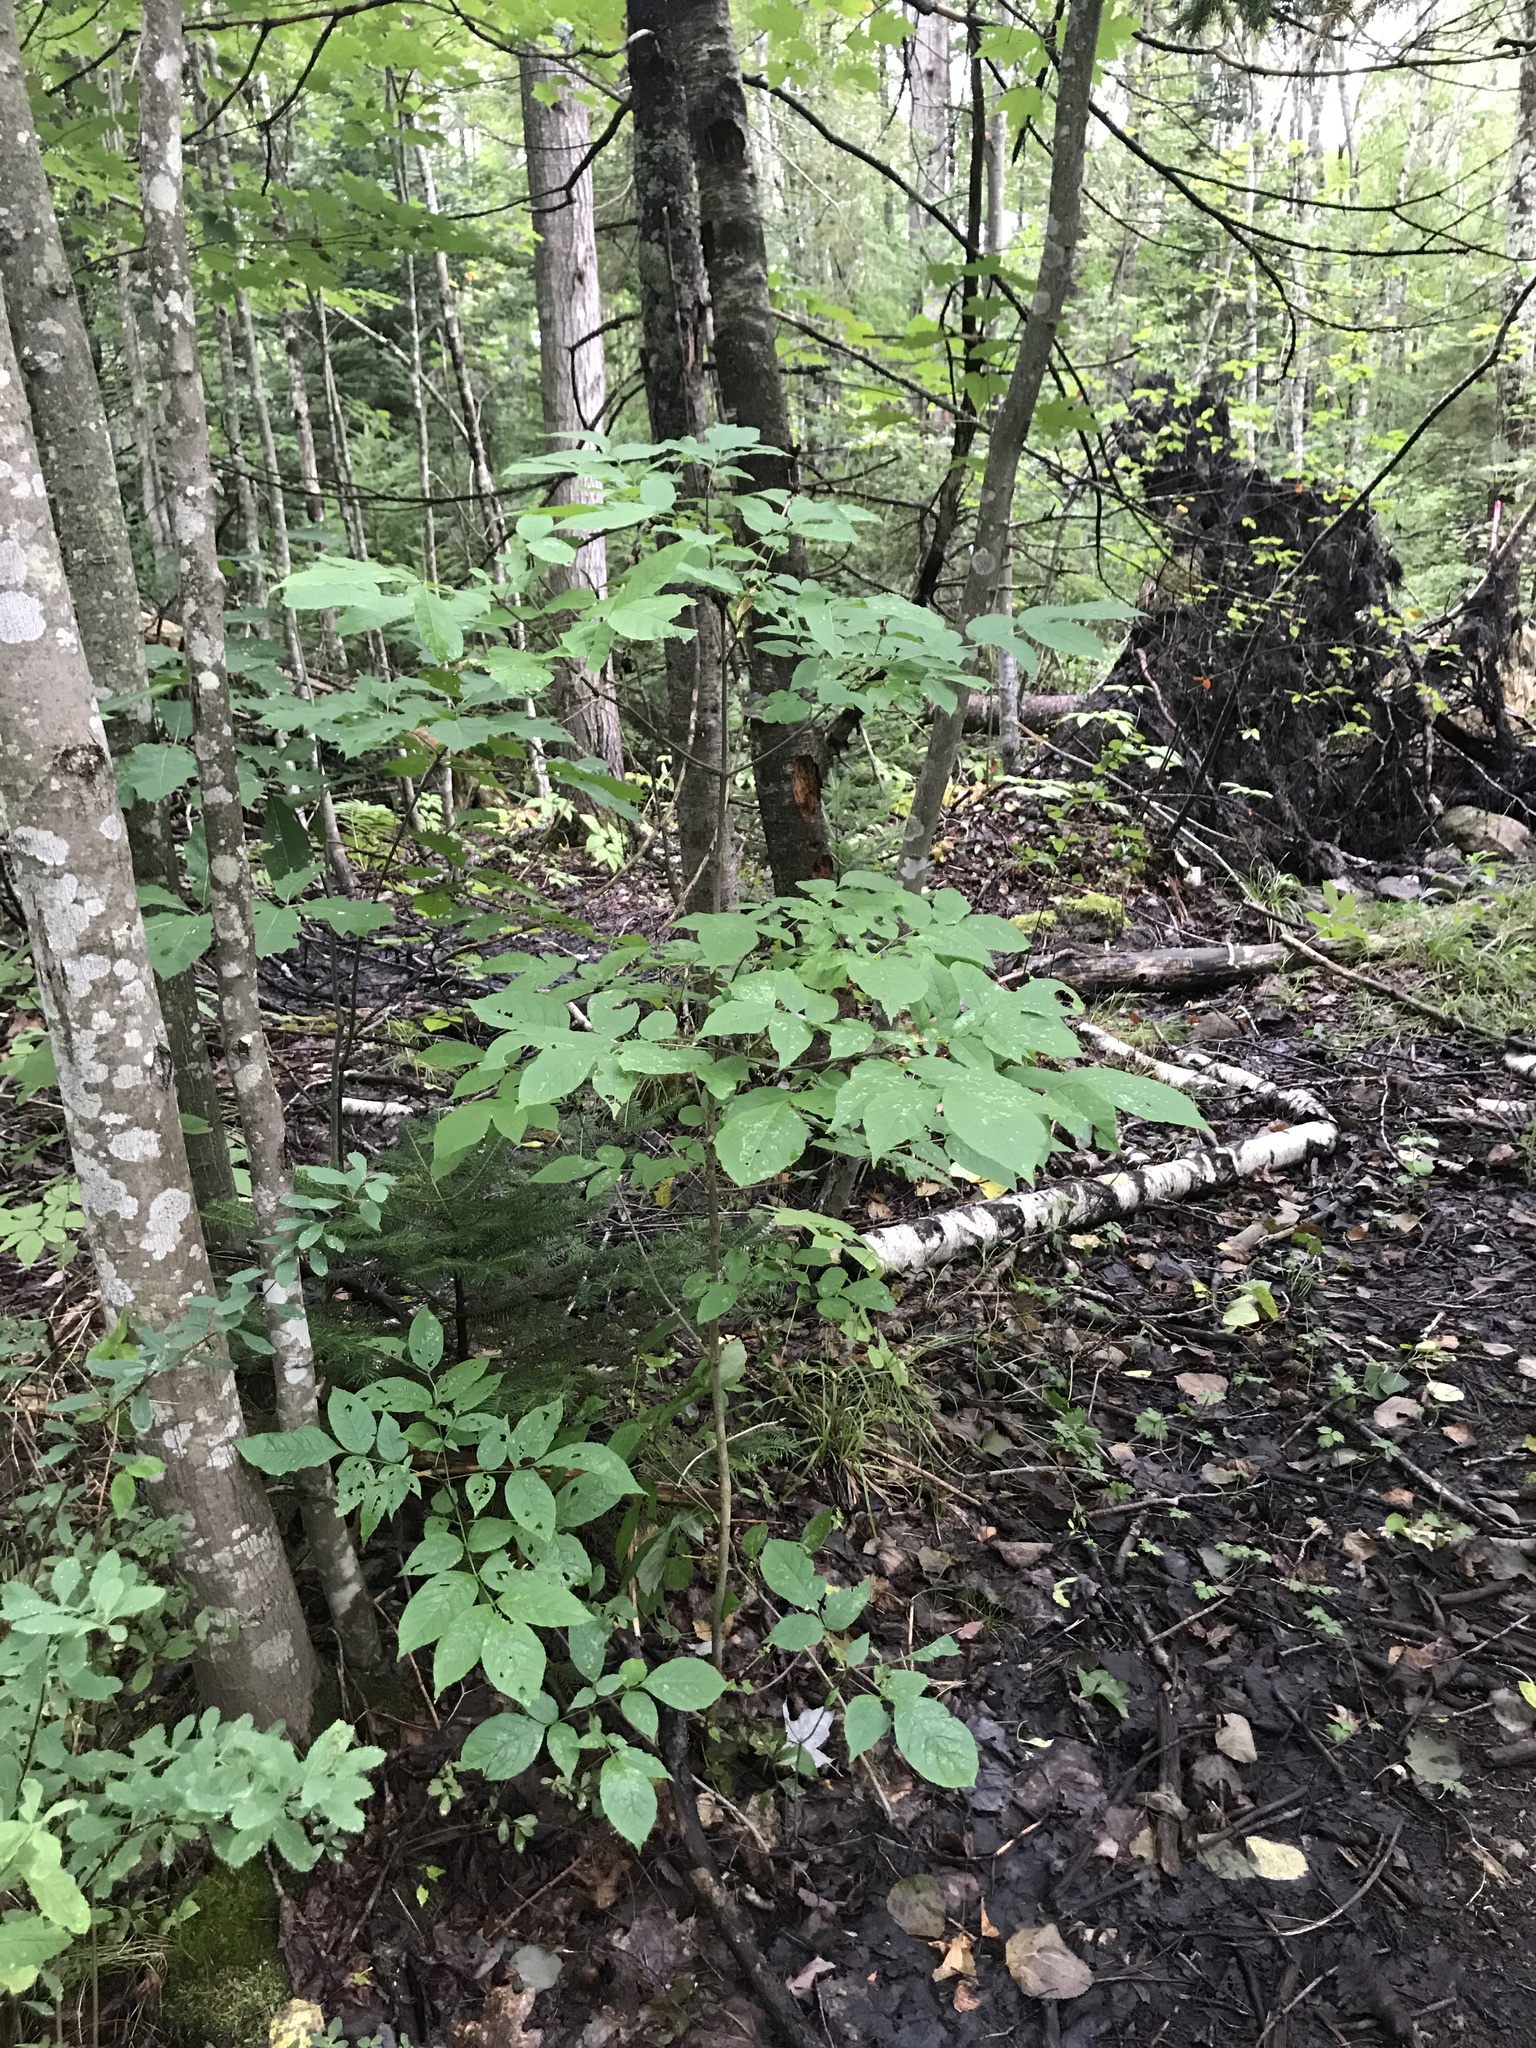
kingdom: Plantae
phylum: Tracheophyta
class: Magnoliopsida
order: Lamiales
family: Oleaceae
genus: Fraxinus
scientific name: Fraxinus americana
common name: White ash
